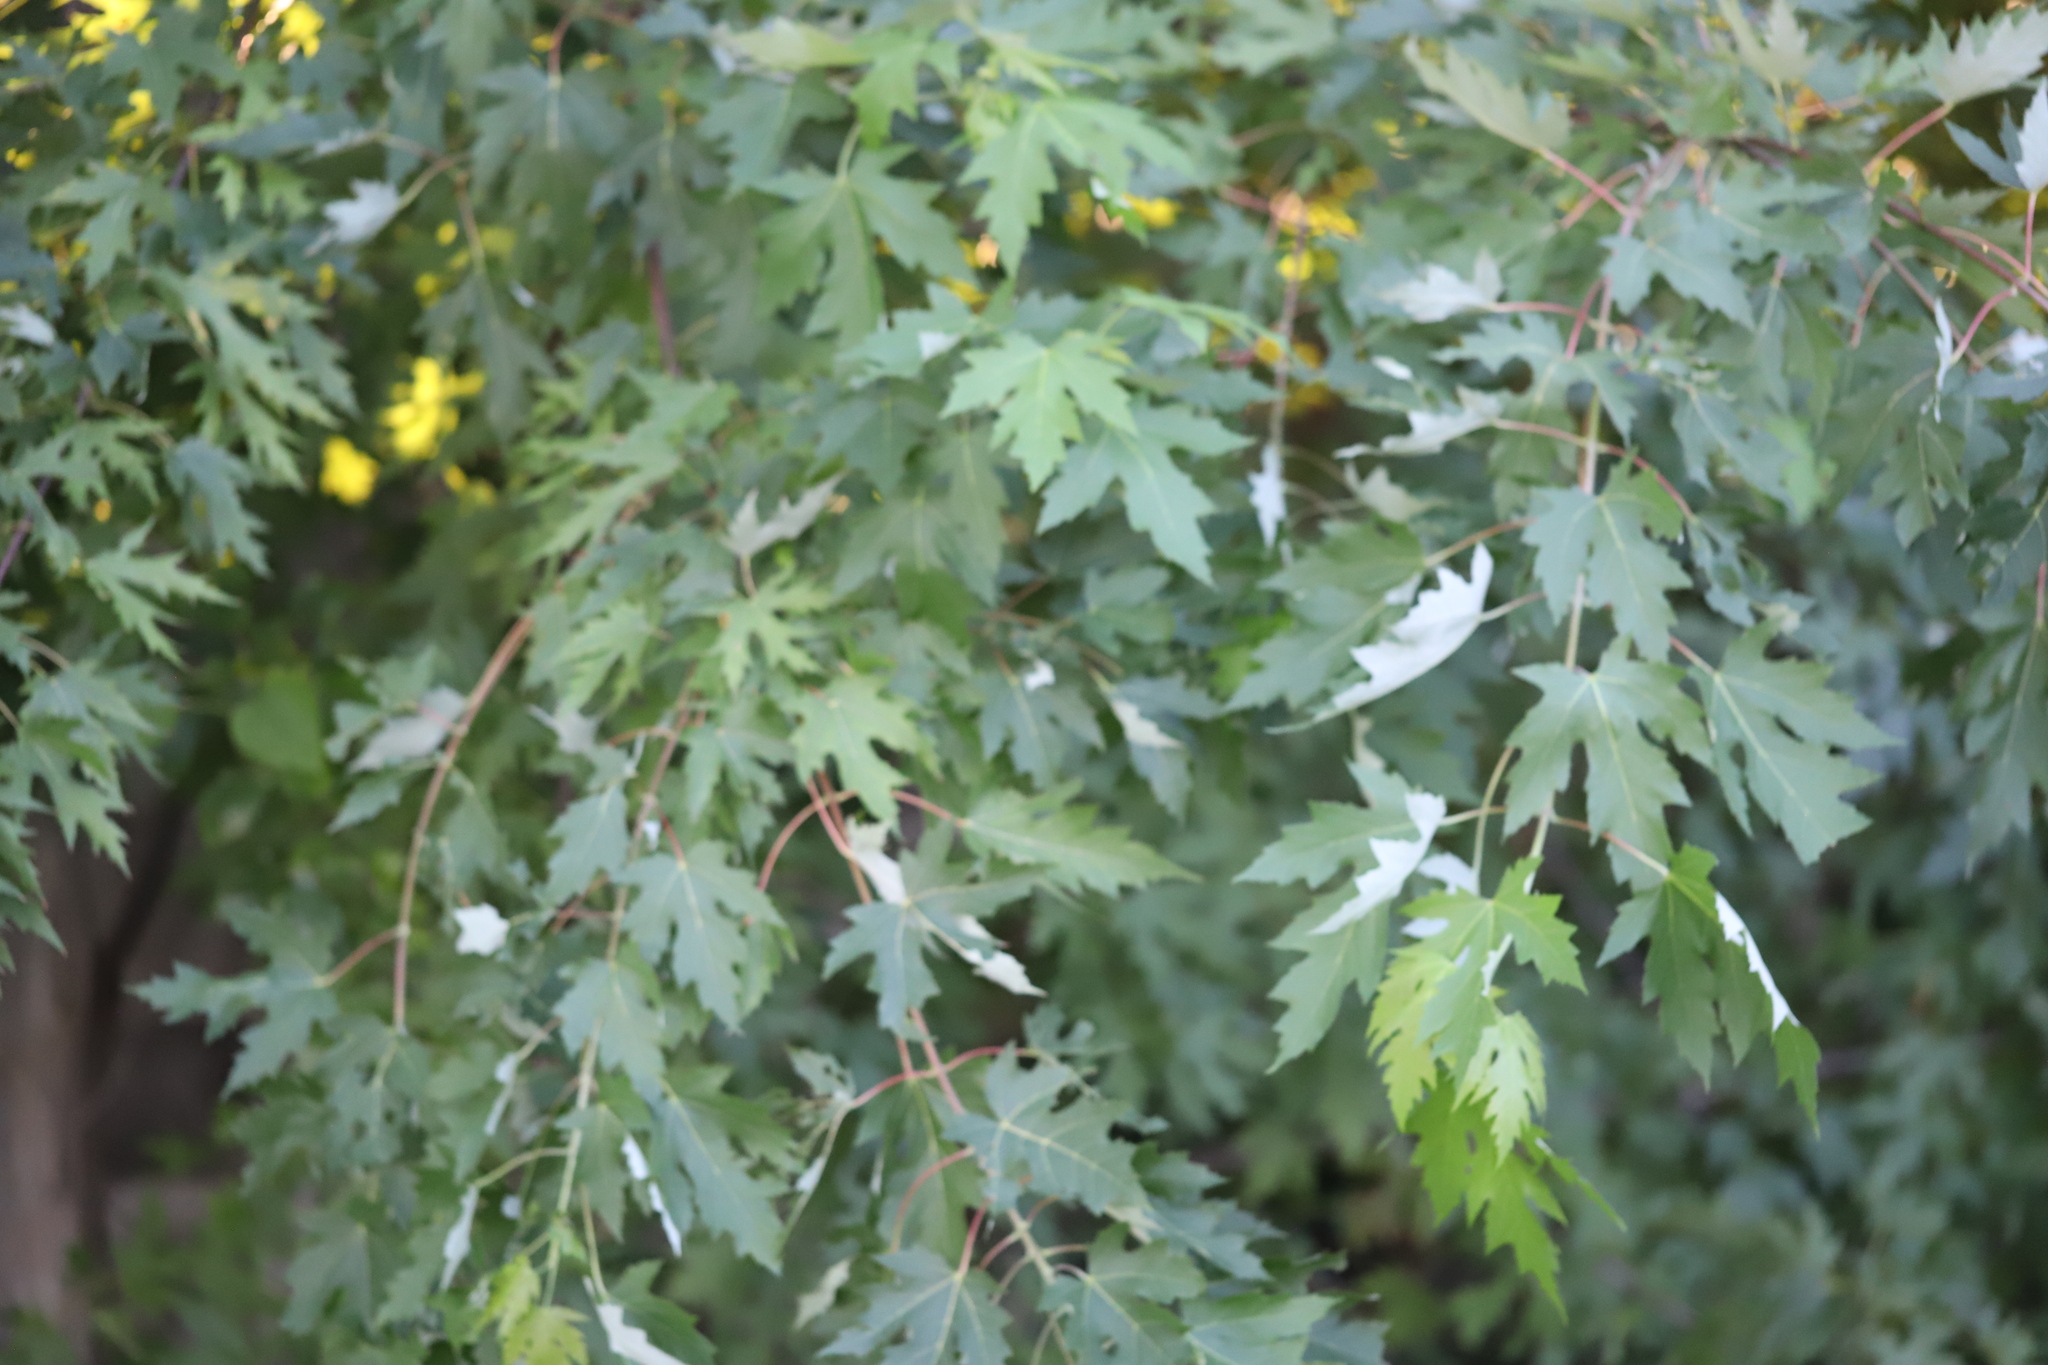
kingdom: Plantae
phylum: Tracheophyta
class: Magnoliopsida
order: Sapindales
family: Sapindaceae
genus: Acer
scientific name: Acer saccharinum
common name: Silver maple
